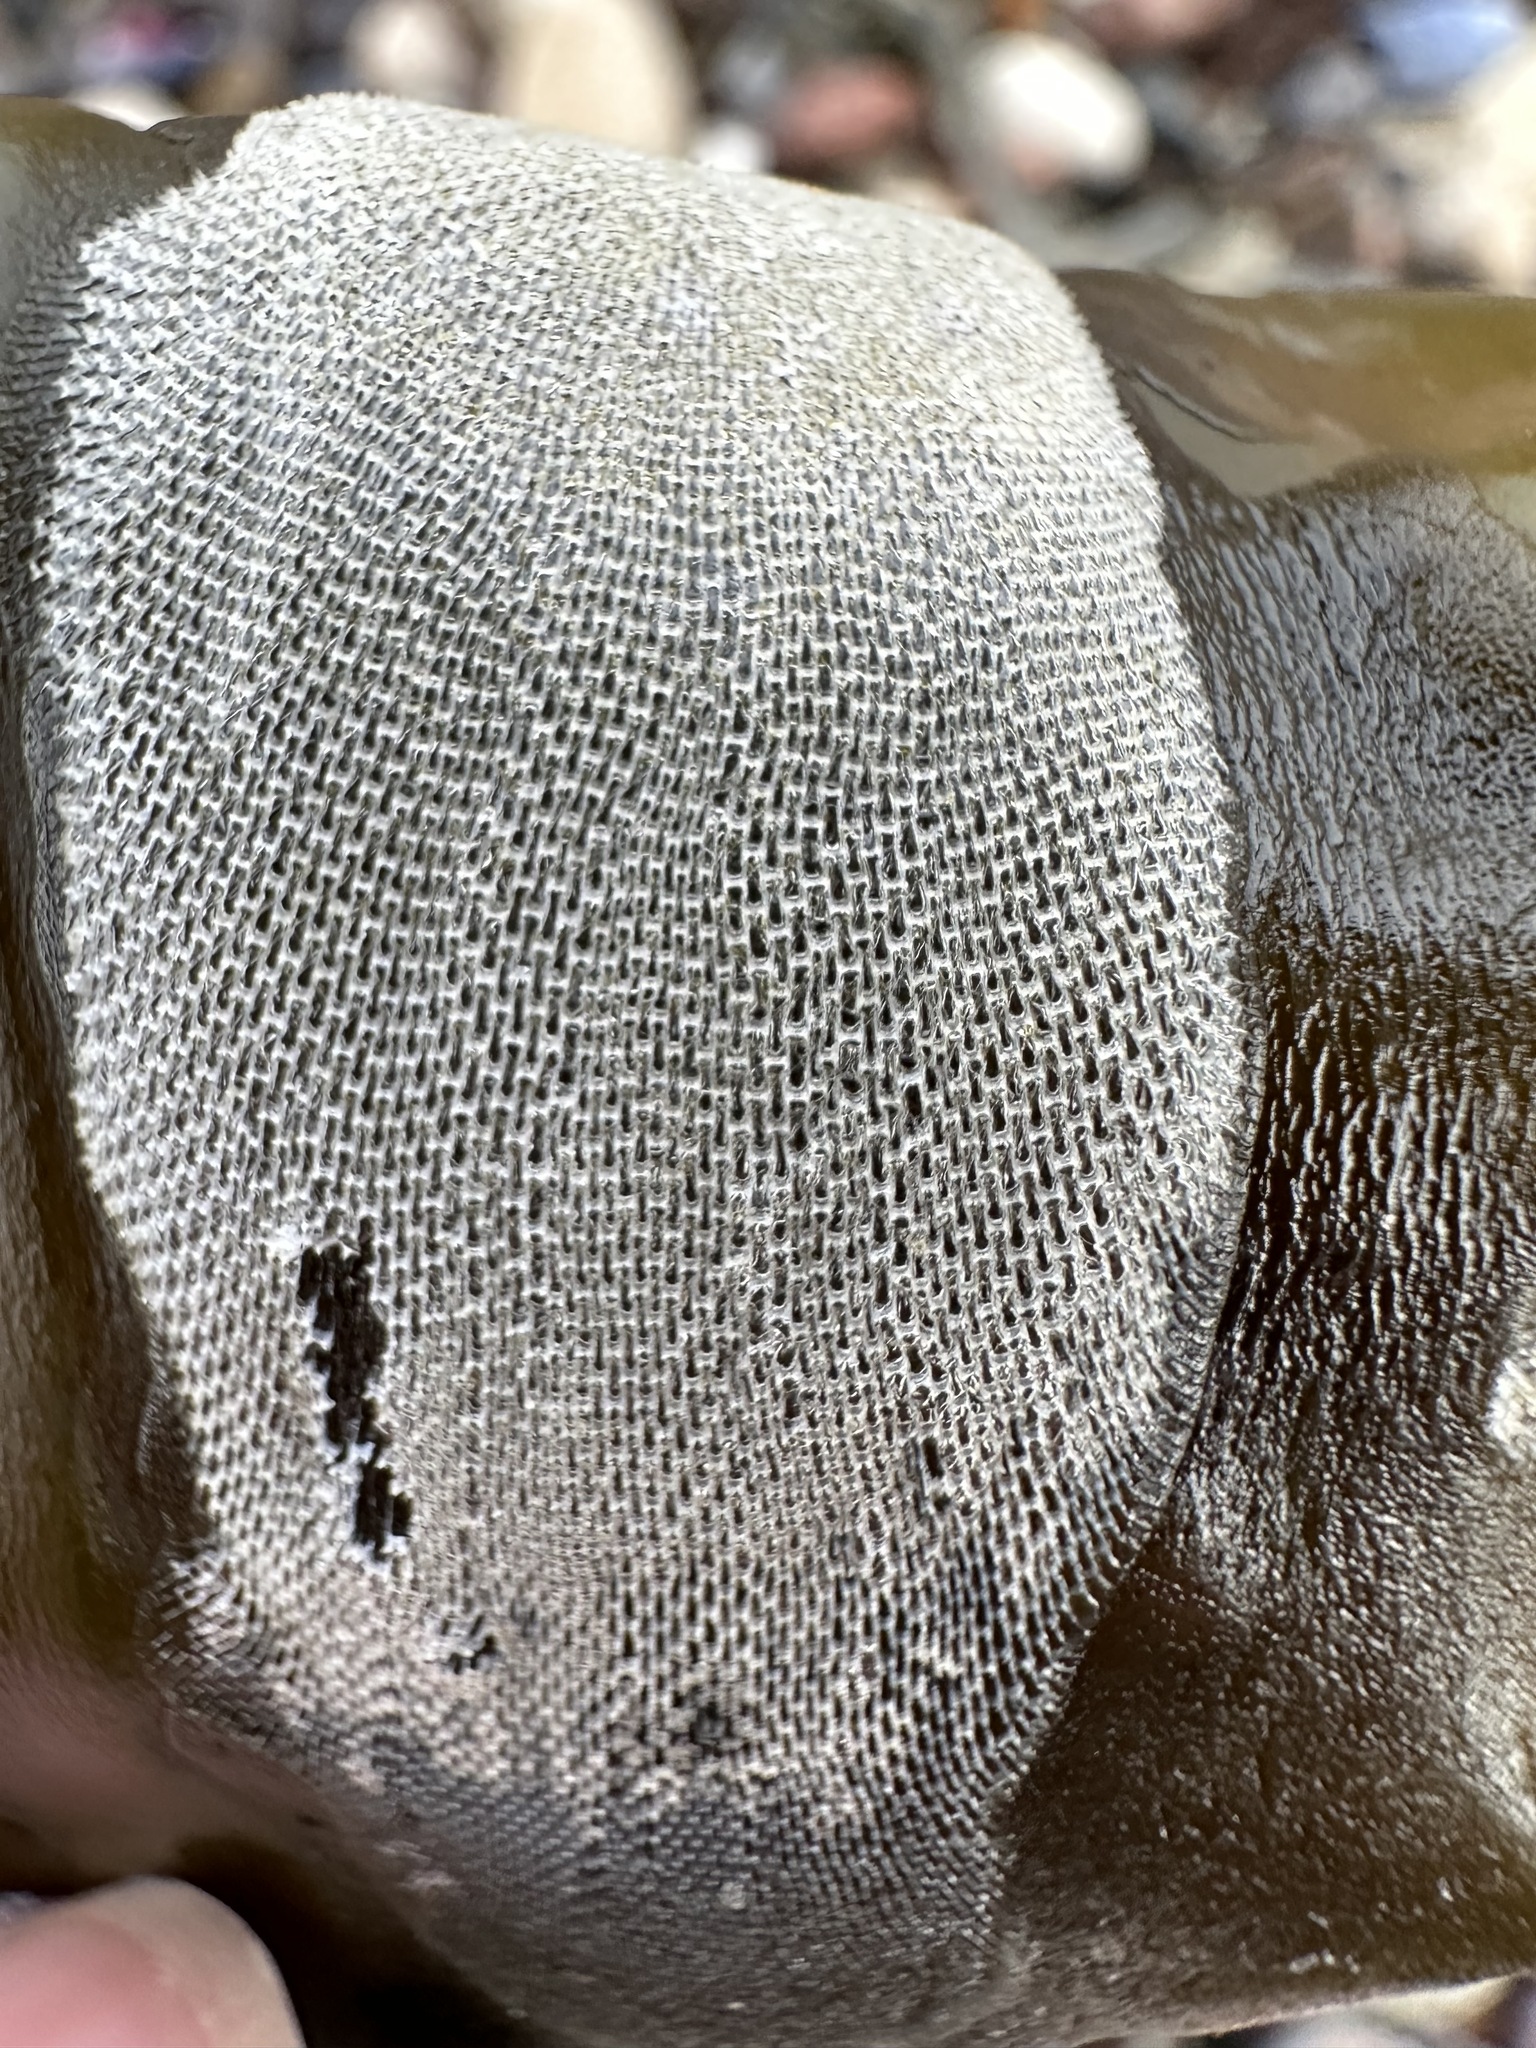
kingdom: Animalia
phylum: Bryozoa
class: Gymnolaemata
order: Cheilostomatida
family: Membraniporidae
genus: Membranipora
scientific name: Membranipora membranacea
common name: Sea mat
